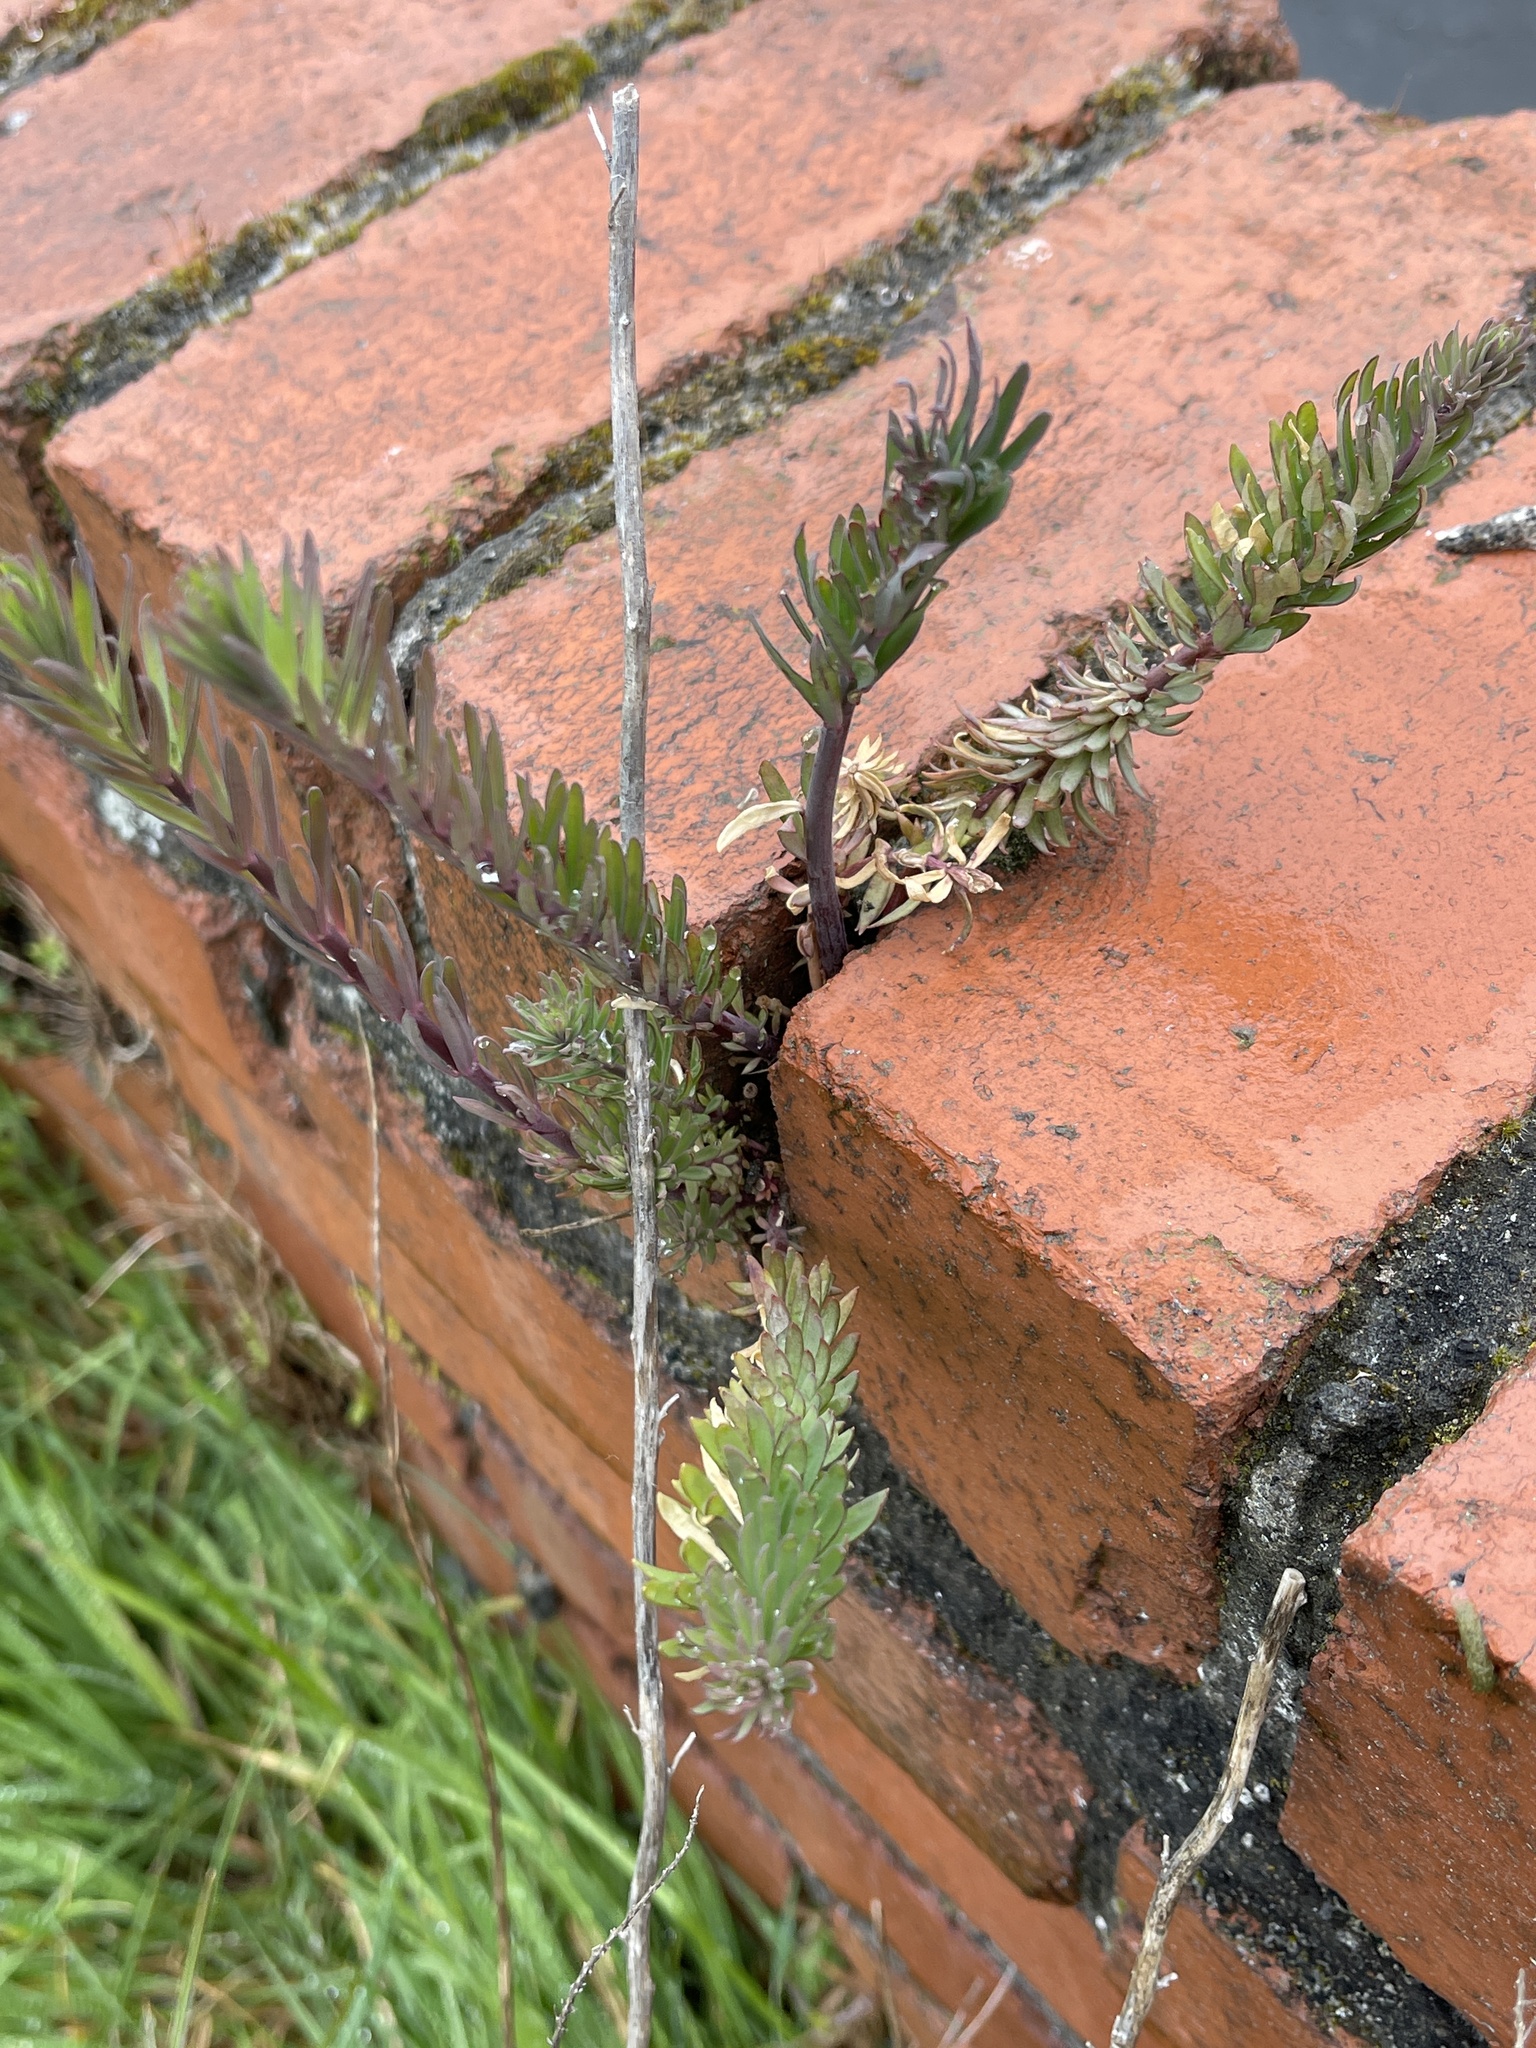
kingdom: Plantae
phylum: Tracheophyta
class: Magnoliopsida
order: Lamiales
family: Plantaginaceae
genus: Linaria
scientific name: Linaria purpurea
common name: Purple toadflax
